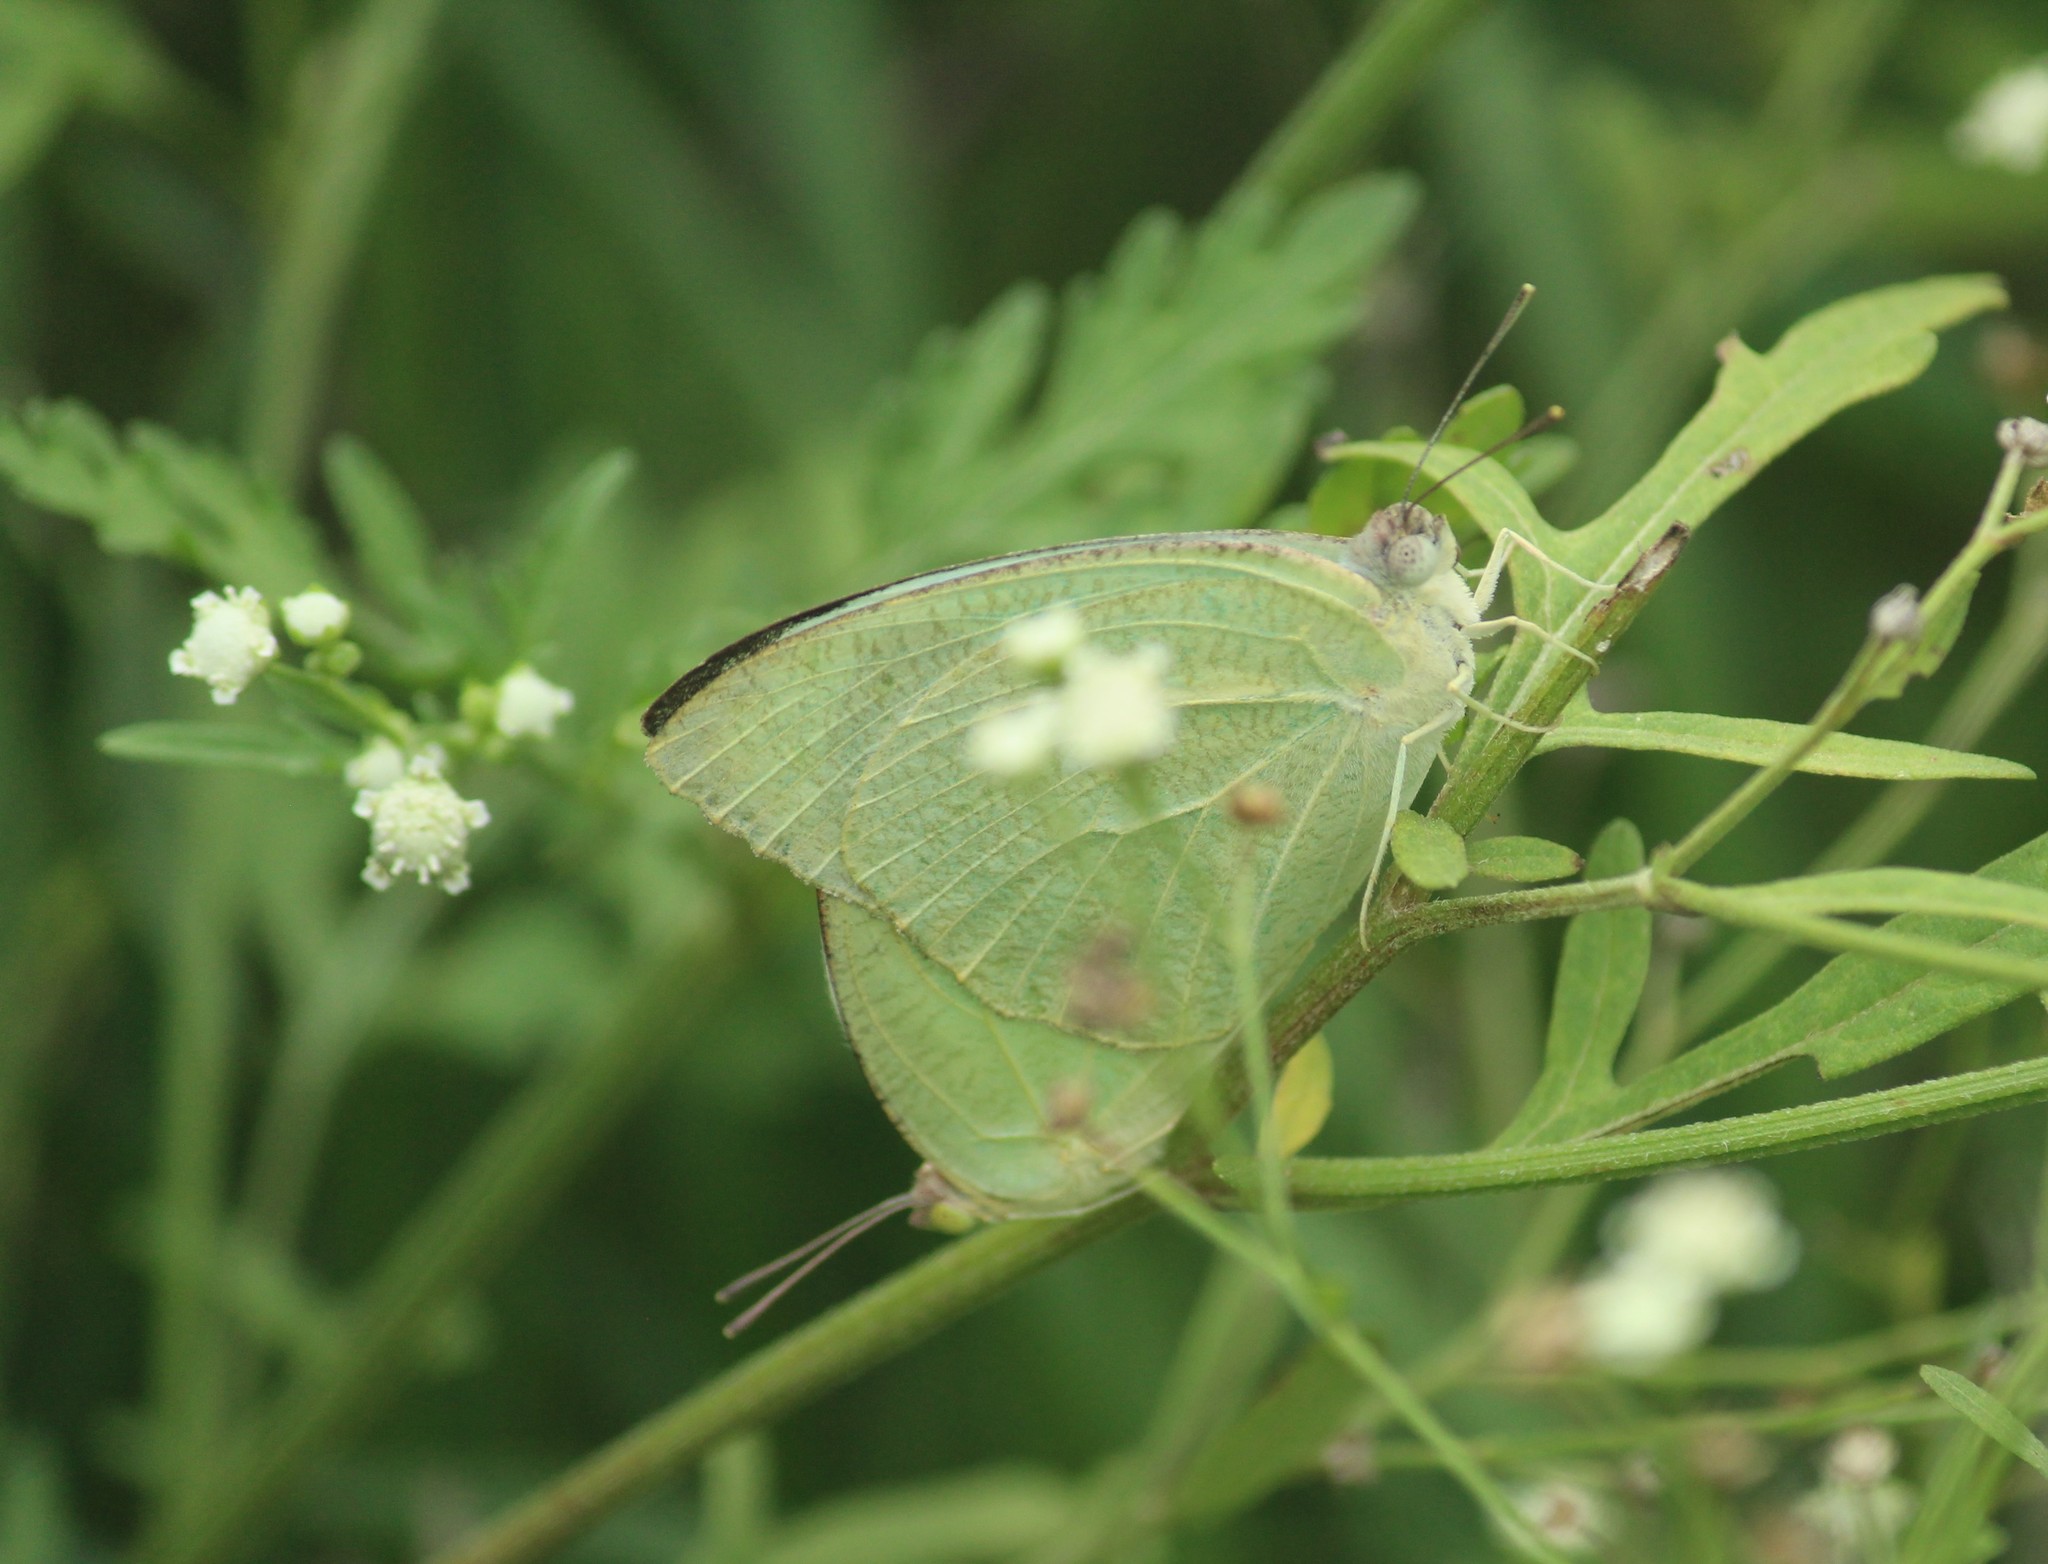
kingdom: Animalia
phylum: Arthropoda
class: Insecta
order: Lepidoptera
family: Pieridae
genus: Catopsilia
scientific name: Catopsilia pyranthe
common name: Mottled emigrant
